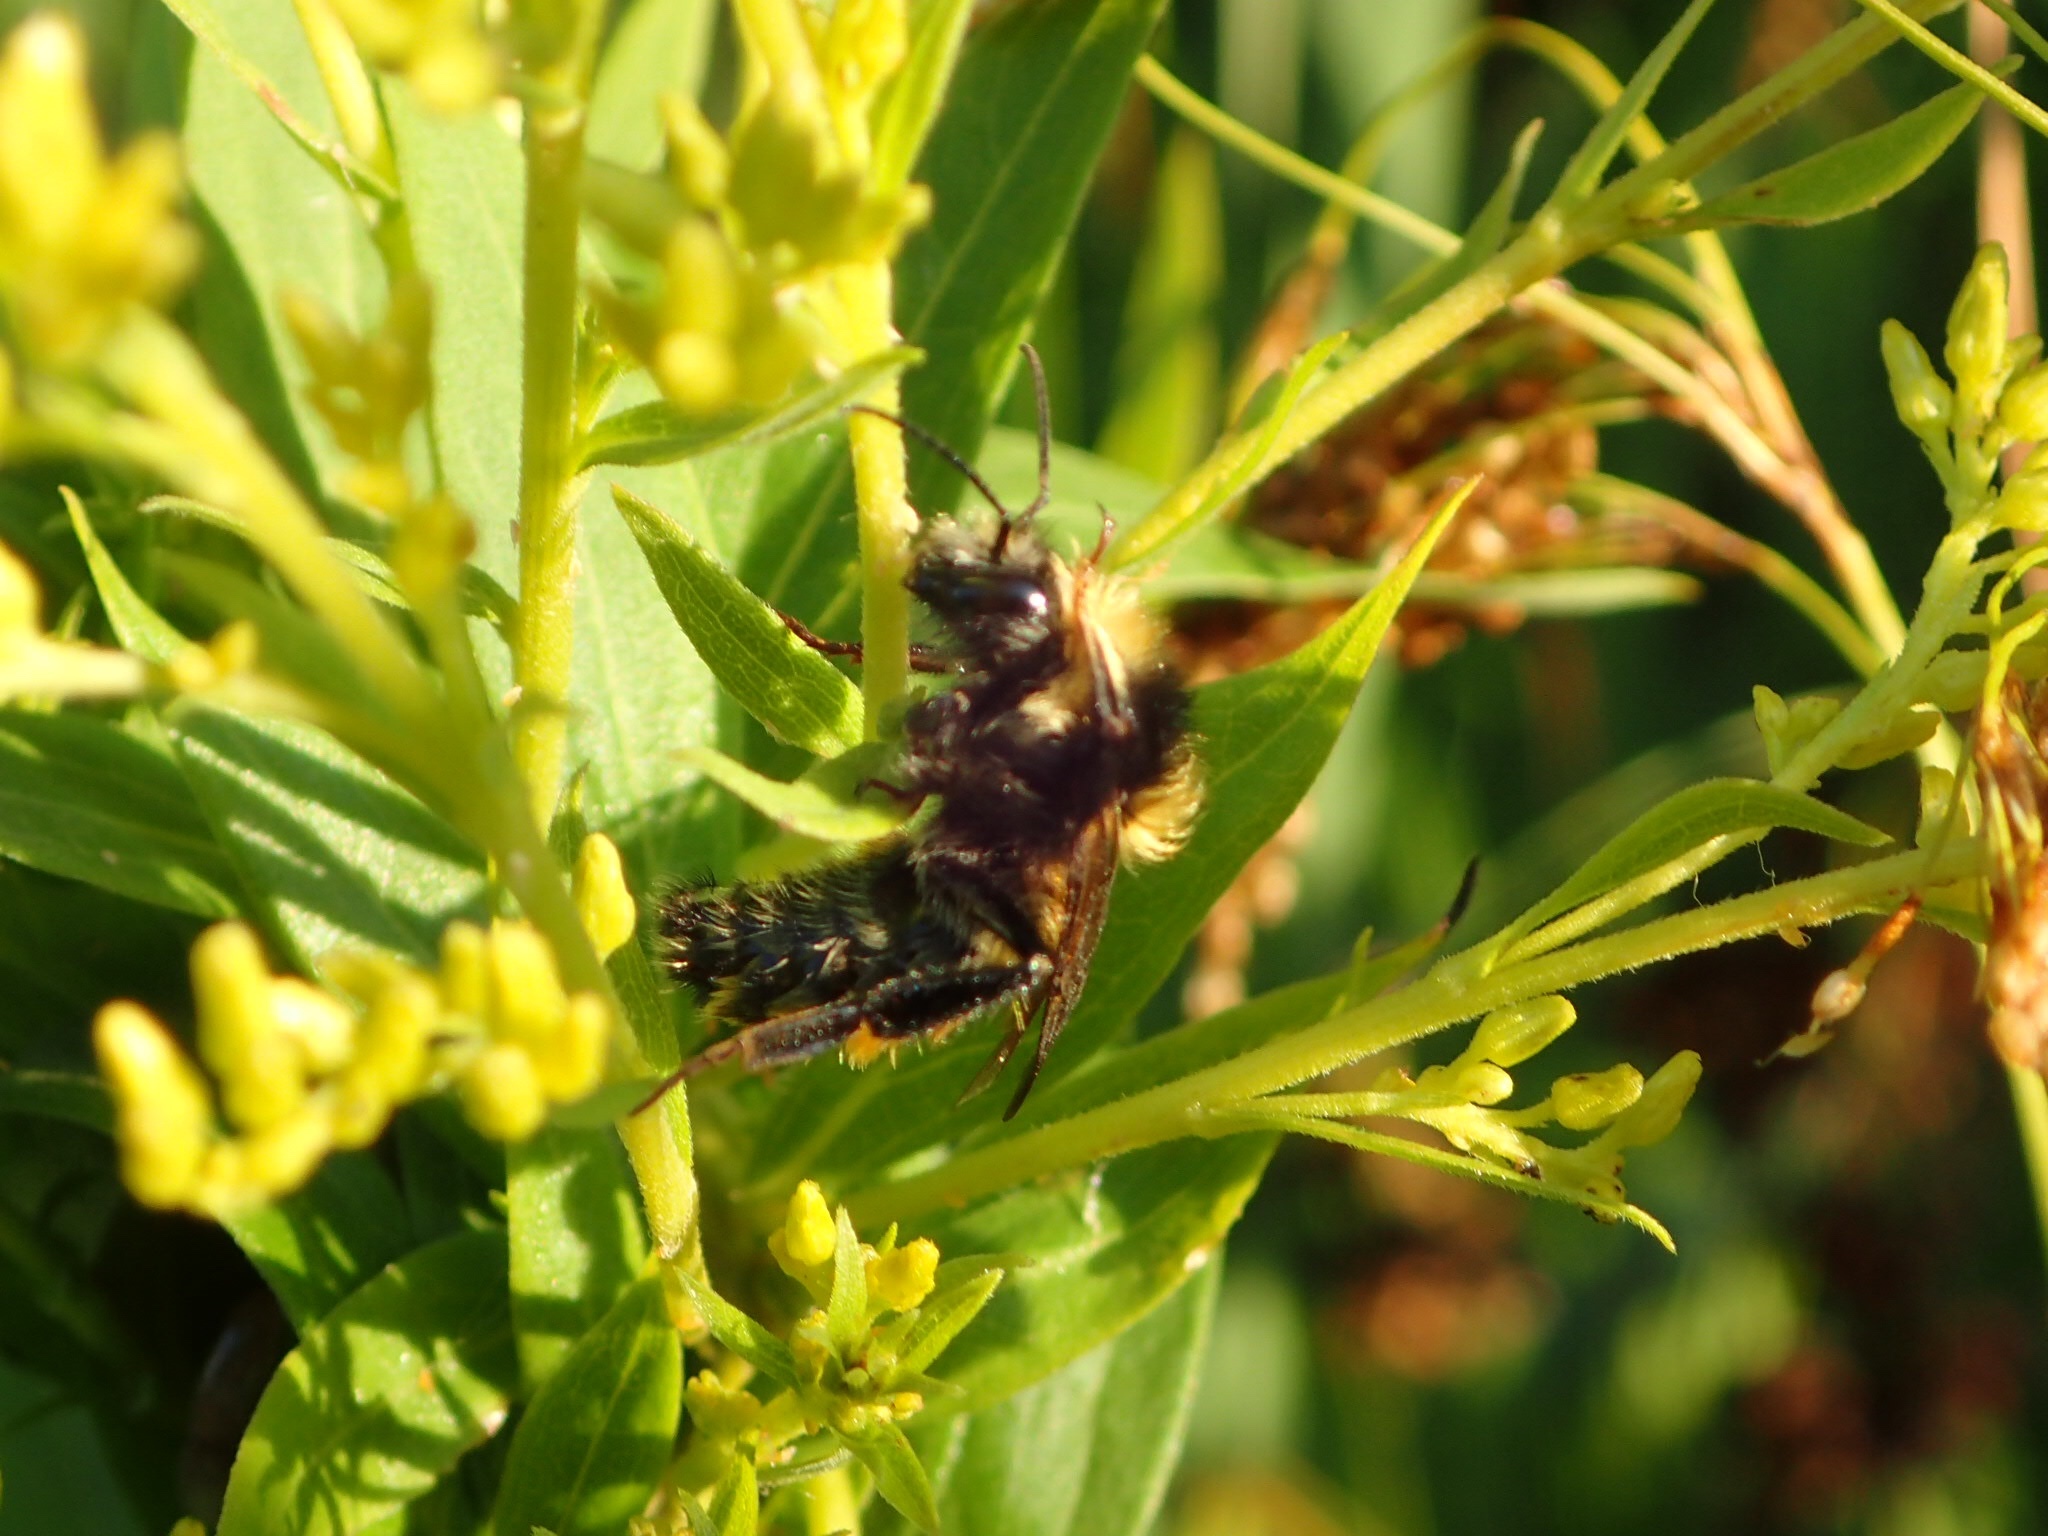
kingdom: Animalia
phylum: Arthropoda
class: Insecta
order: Hymenoptera
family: Apidae
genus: Bombus
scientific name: Bombus borealis
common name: Northern amber bumble bee
